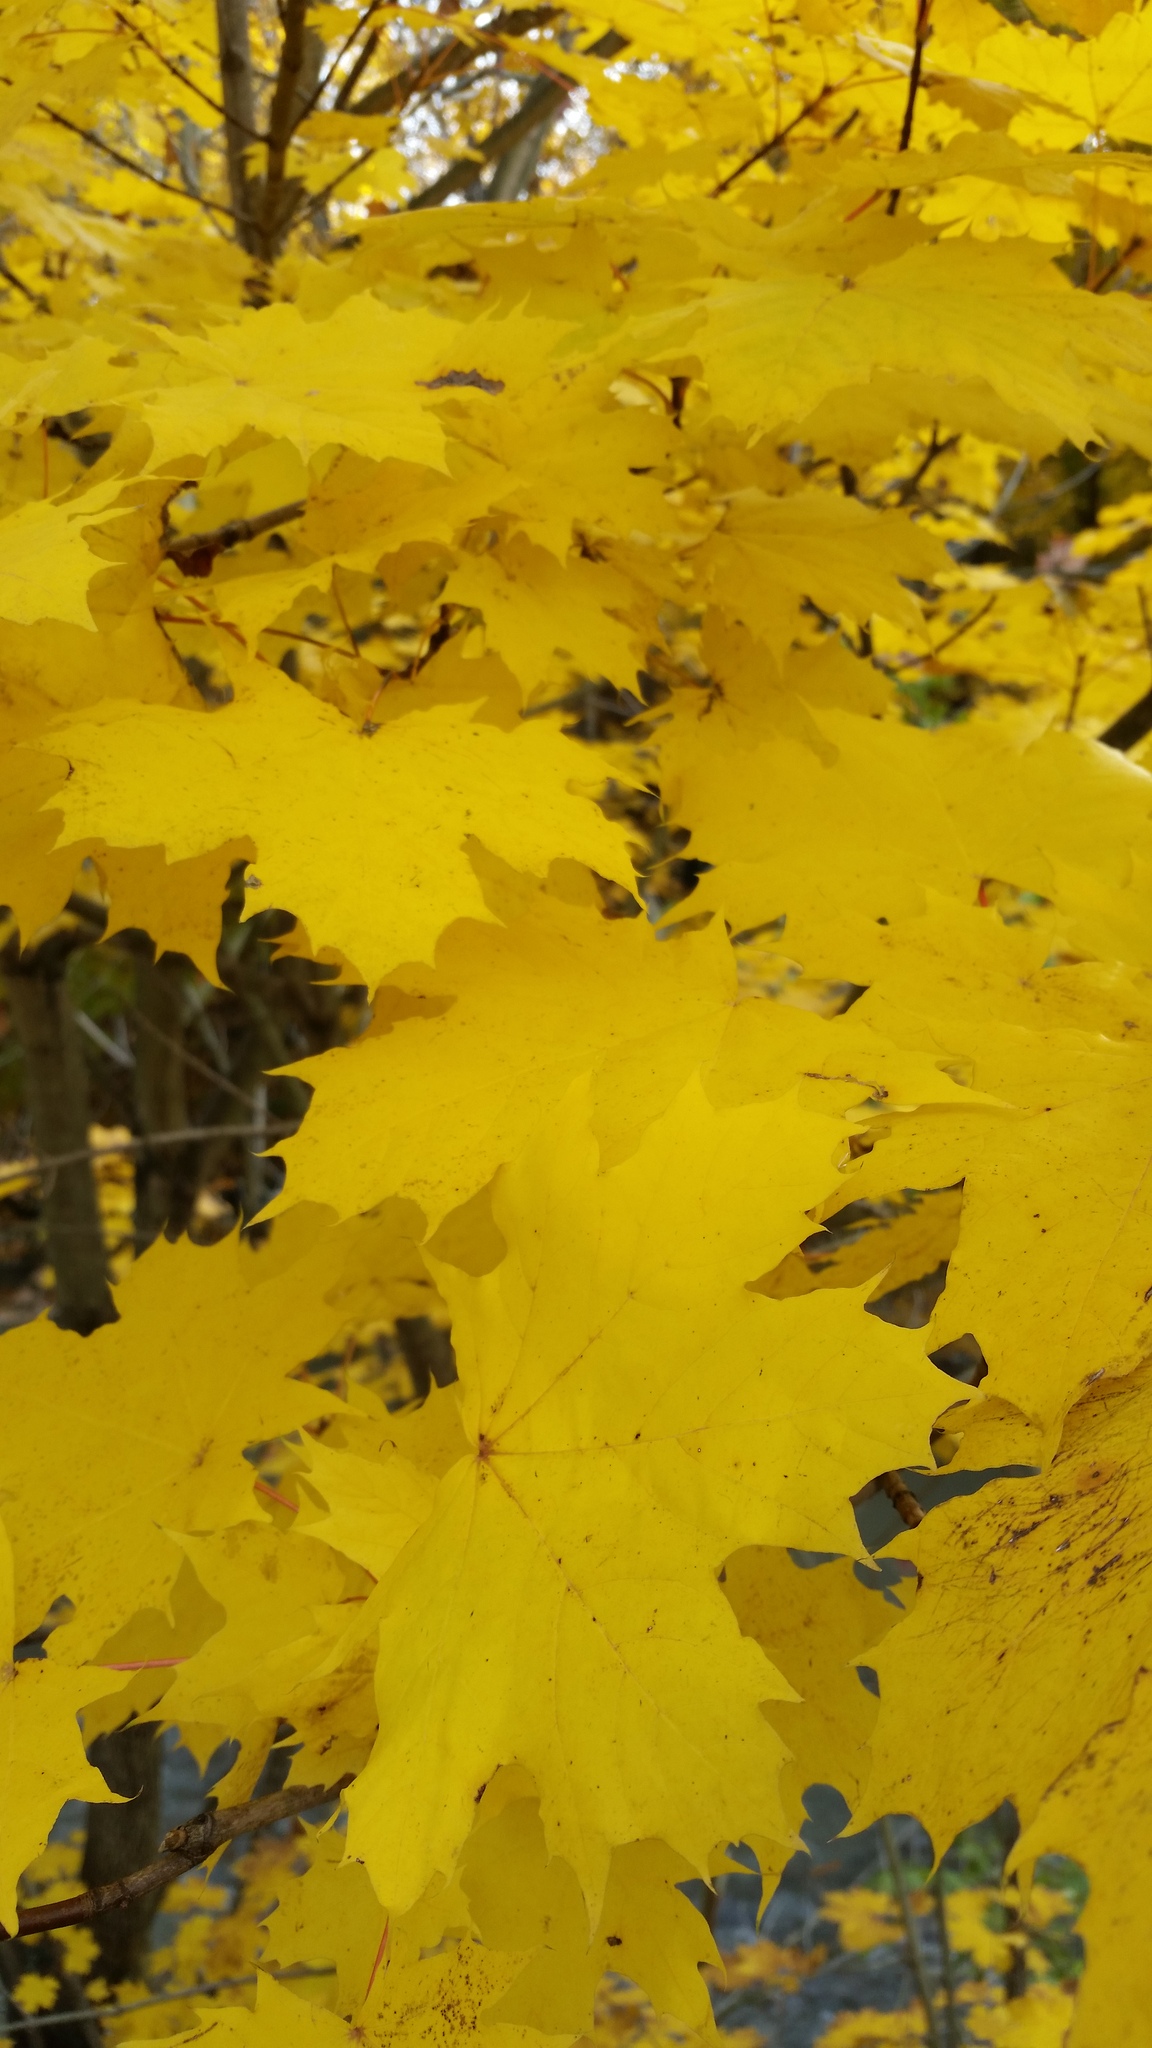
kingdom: Plantae
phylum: Tracheophyta
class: Magnoliopsida
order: Sapindales
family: Sapindaceae
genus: Acer
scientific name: Acer platanoides
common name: Norway maple
